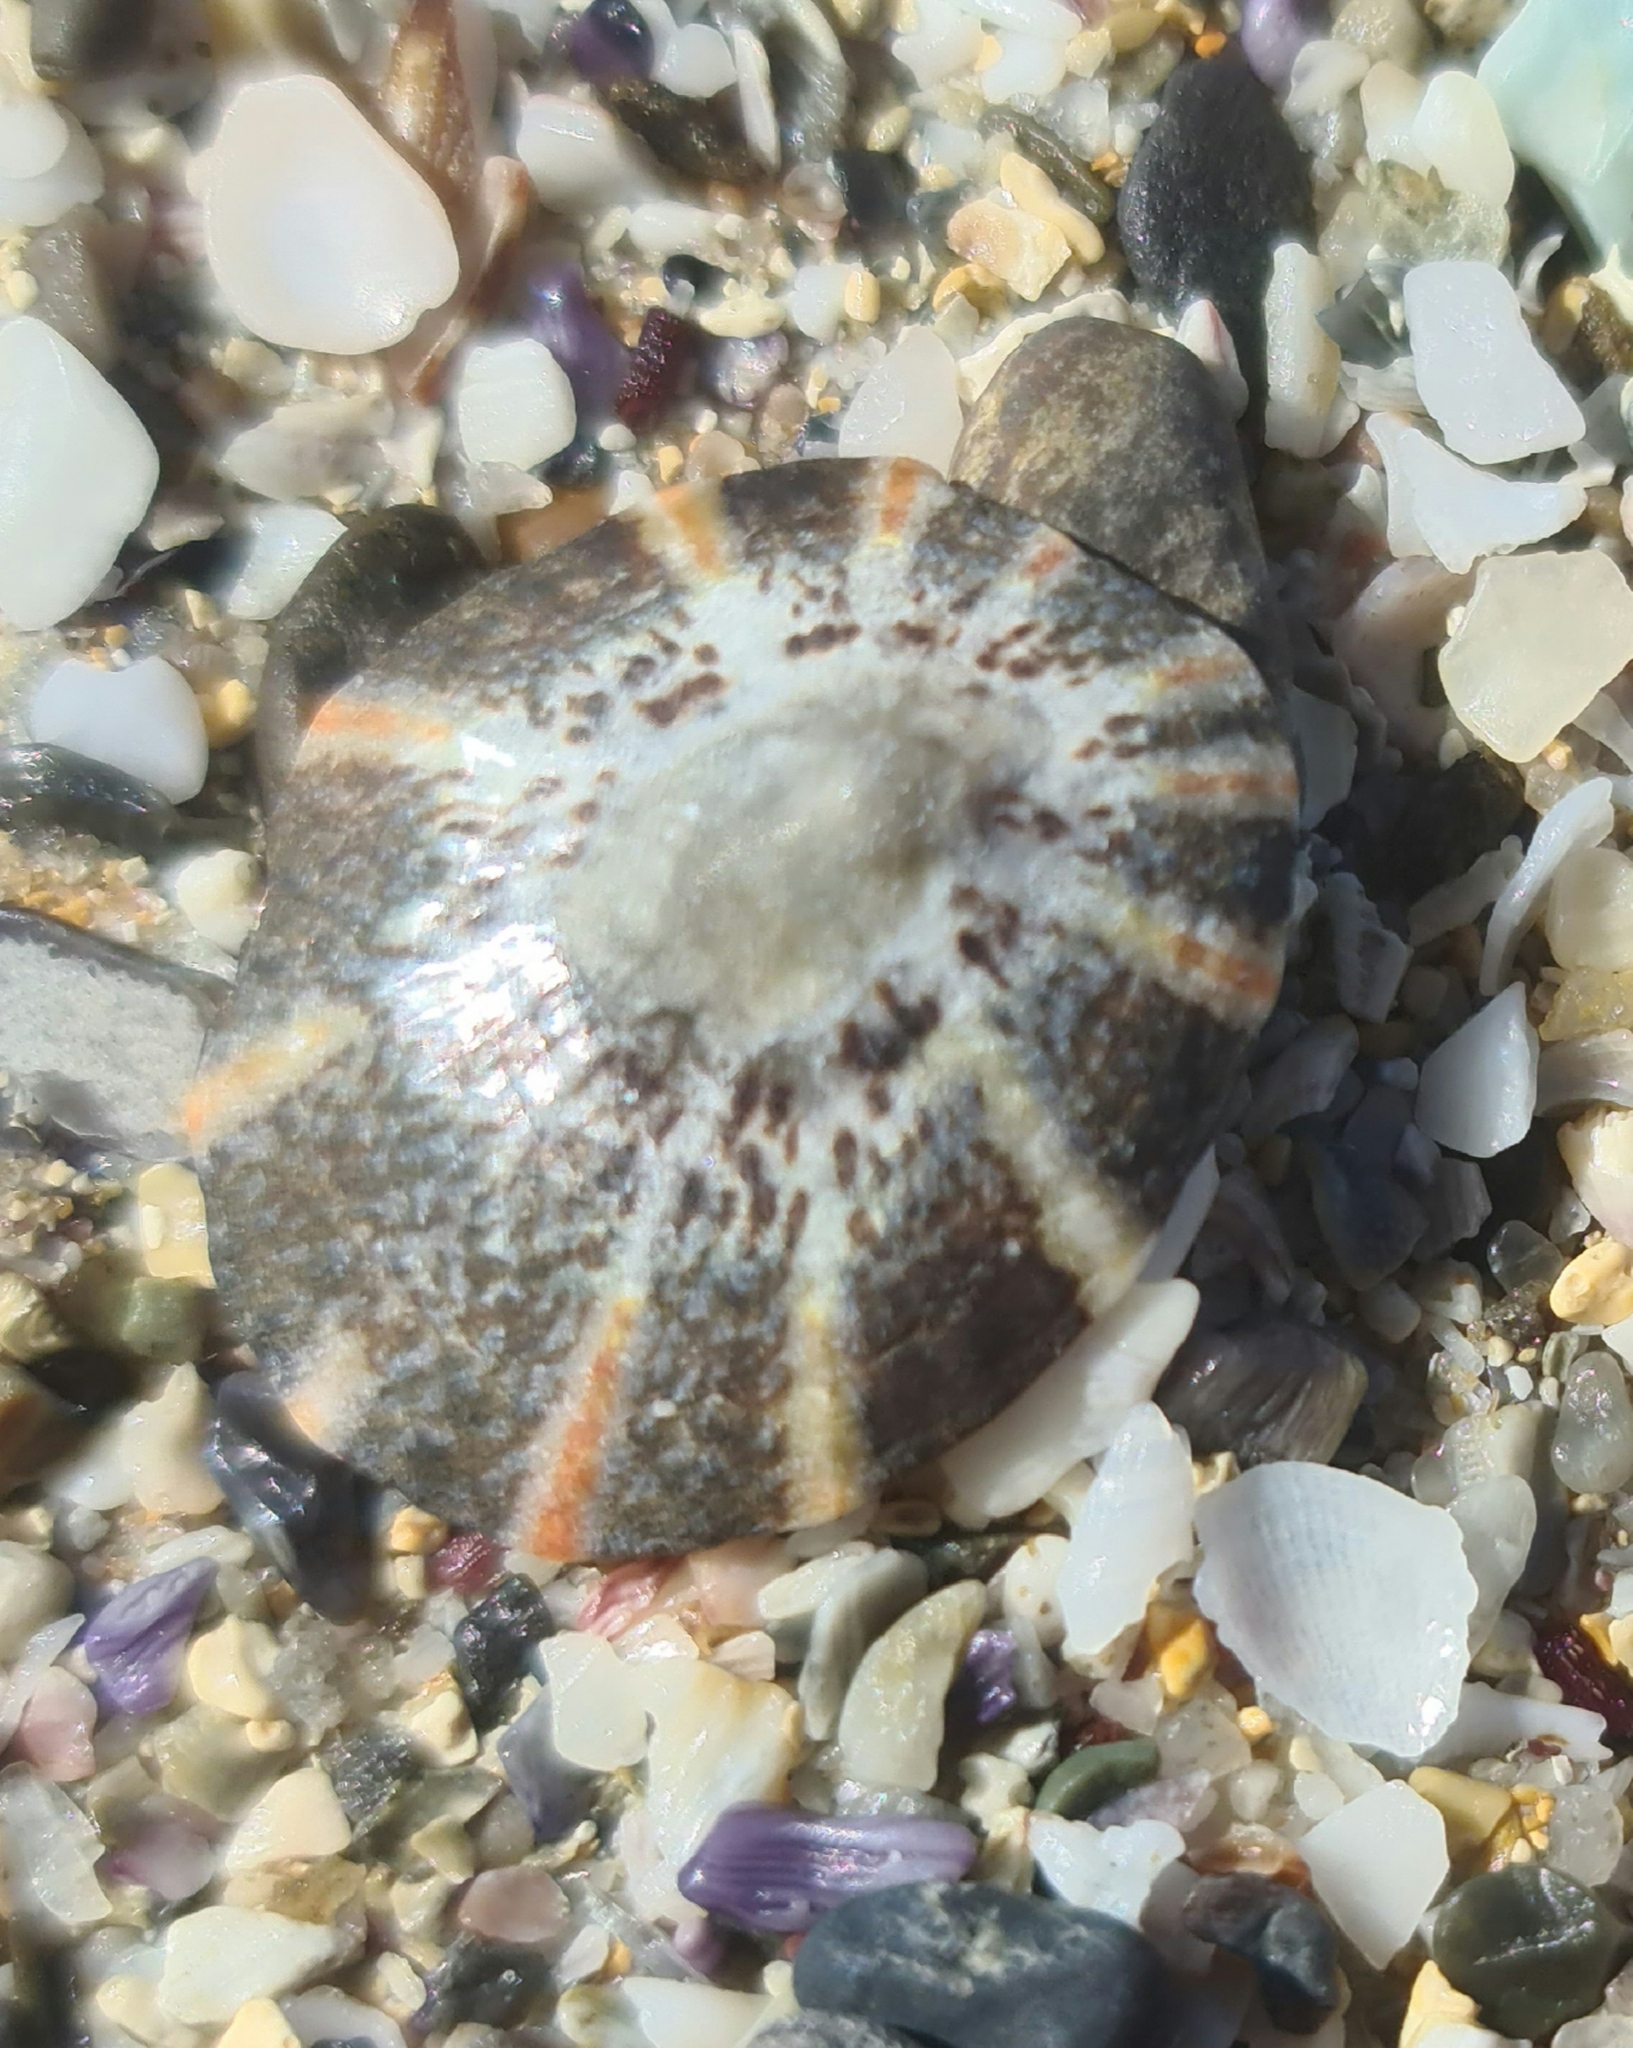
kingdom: Animalia
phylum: Mollusca
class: Gastropoda
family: Nacellidae
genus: Cellana
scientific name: Cellana tramoserica
